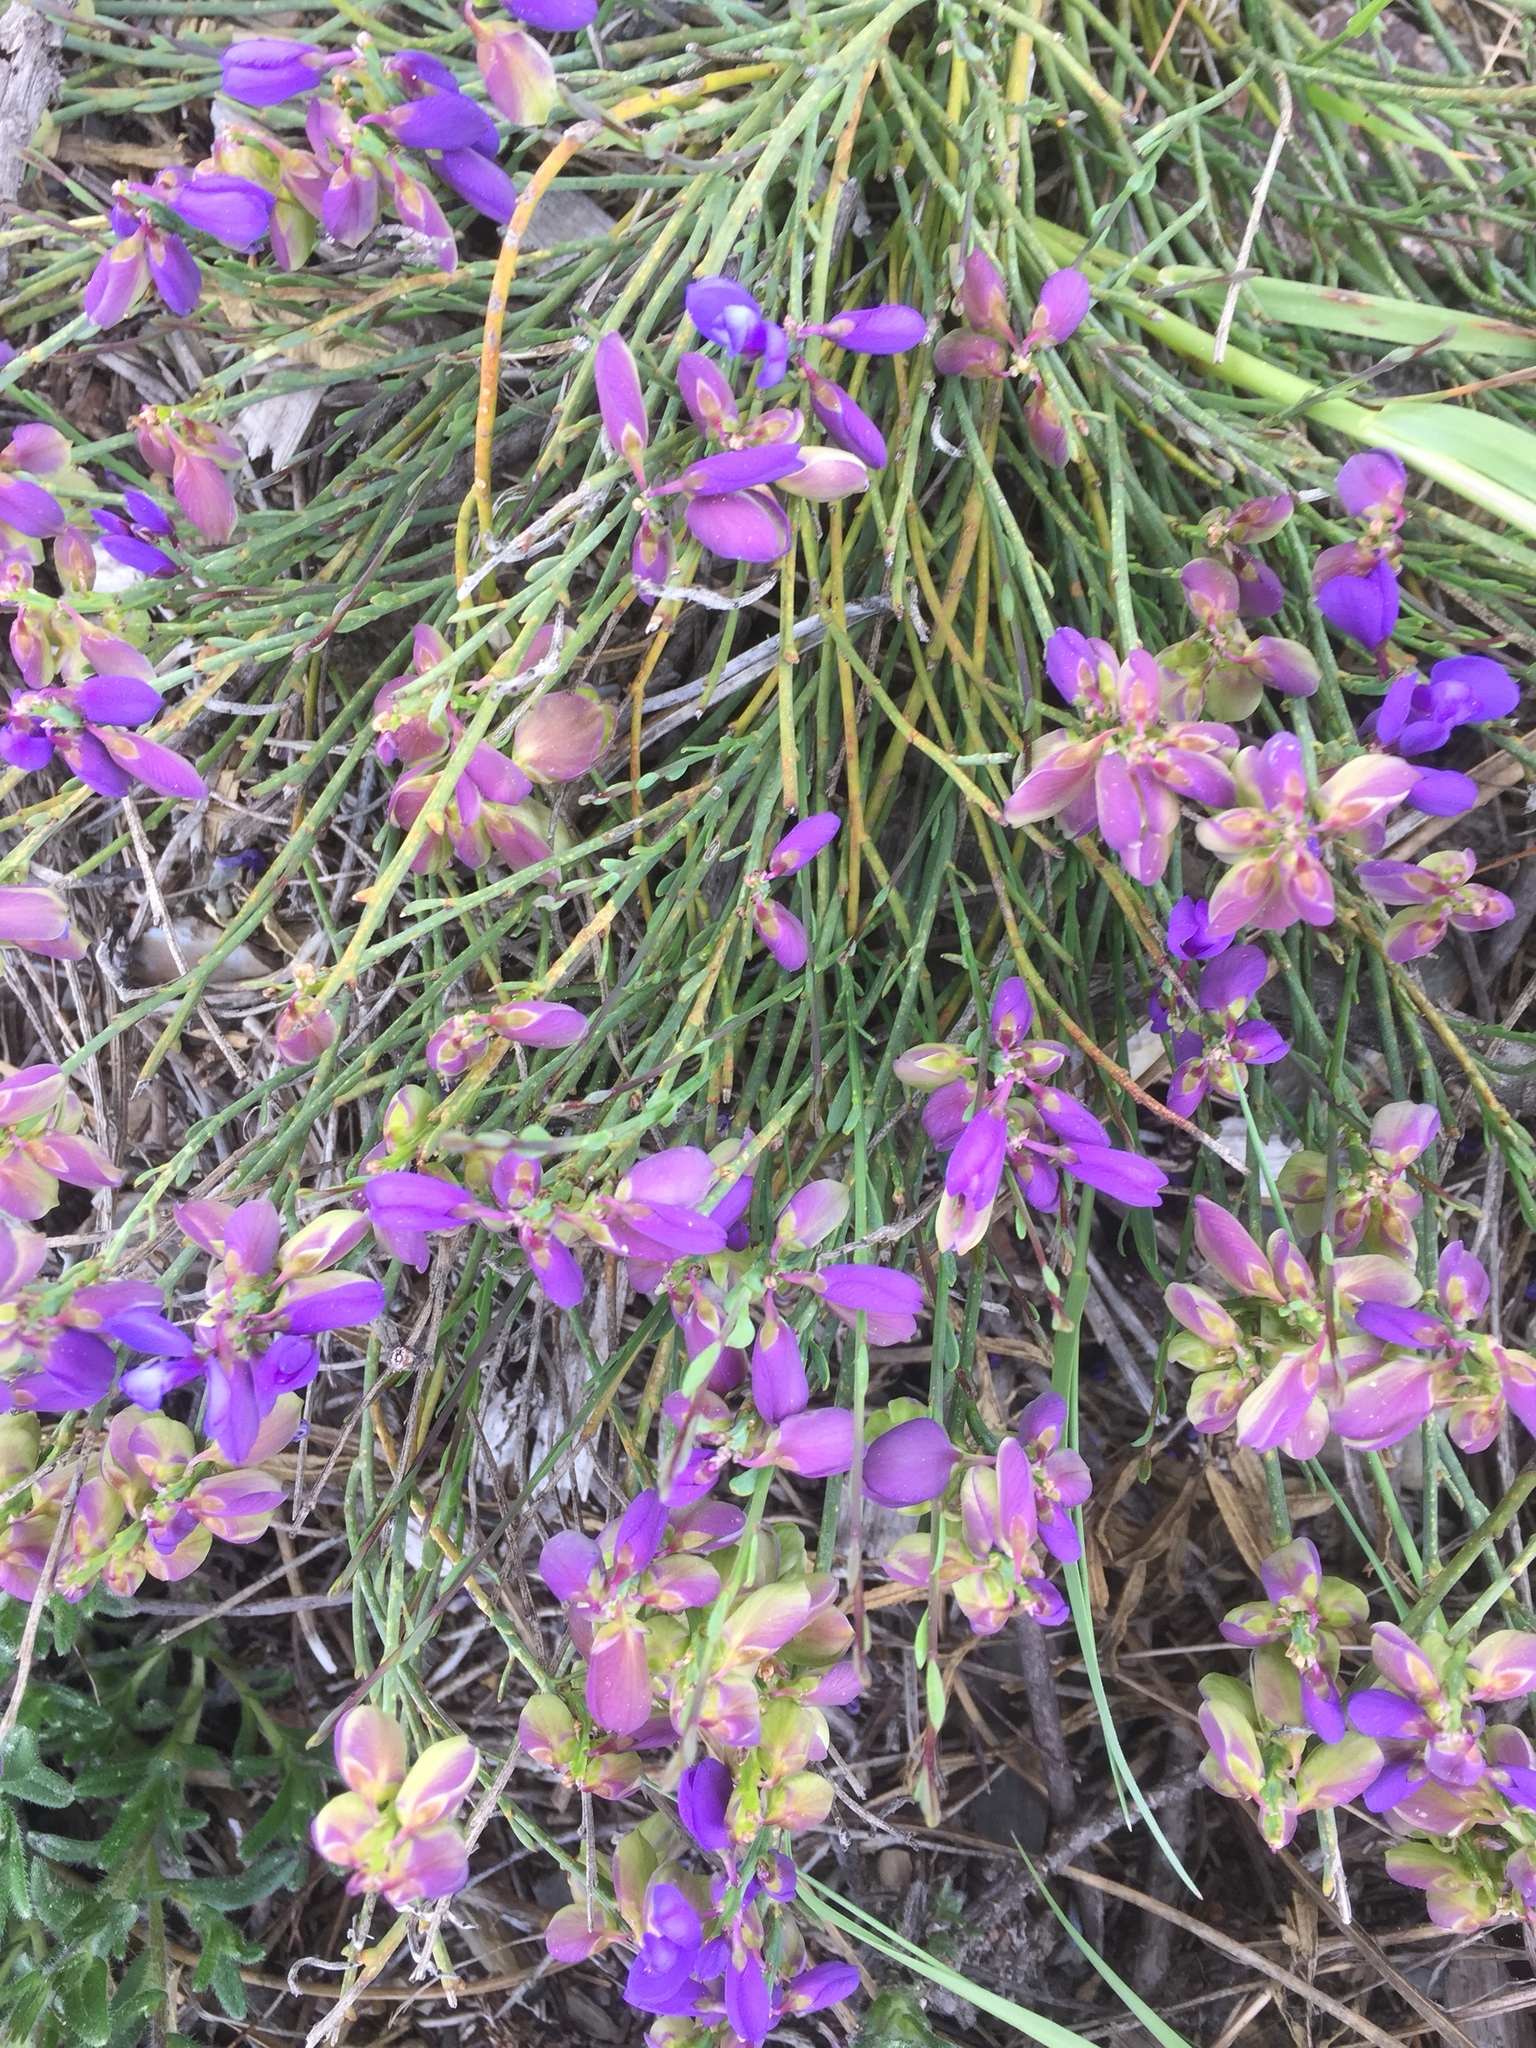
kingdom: Plantae
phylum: Tracheophyta
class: Magnoliopsida
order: Fabales
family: Polygalaceae
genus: Polygala
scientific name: Polygala microphylla
